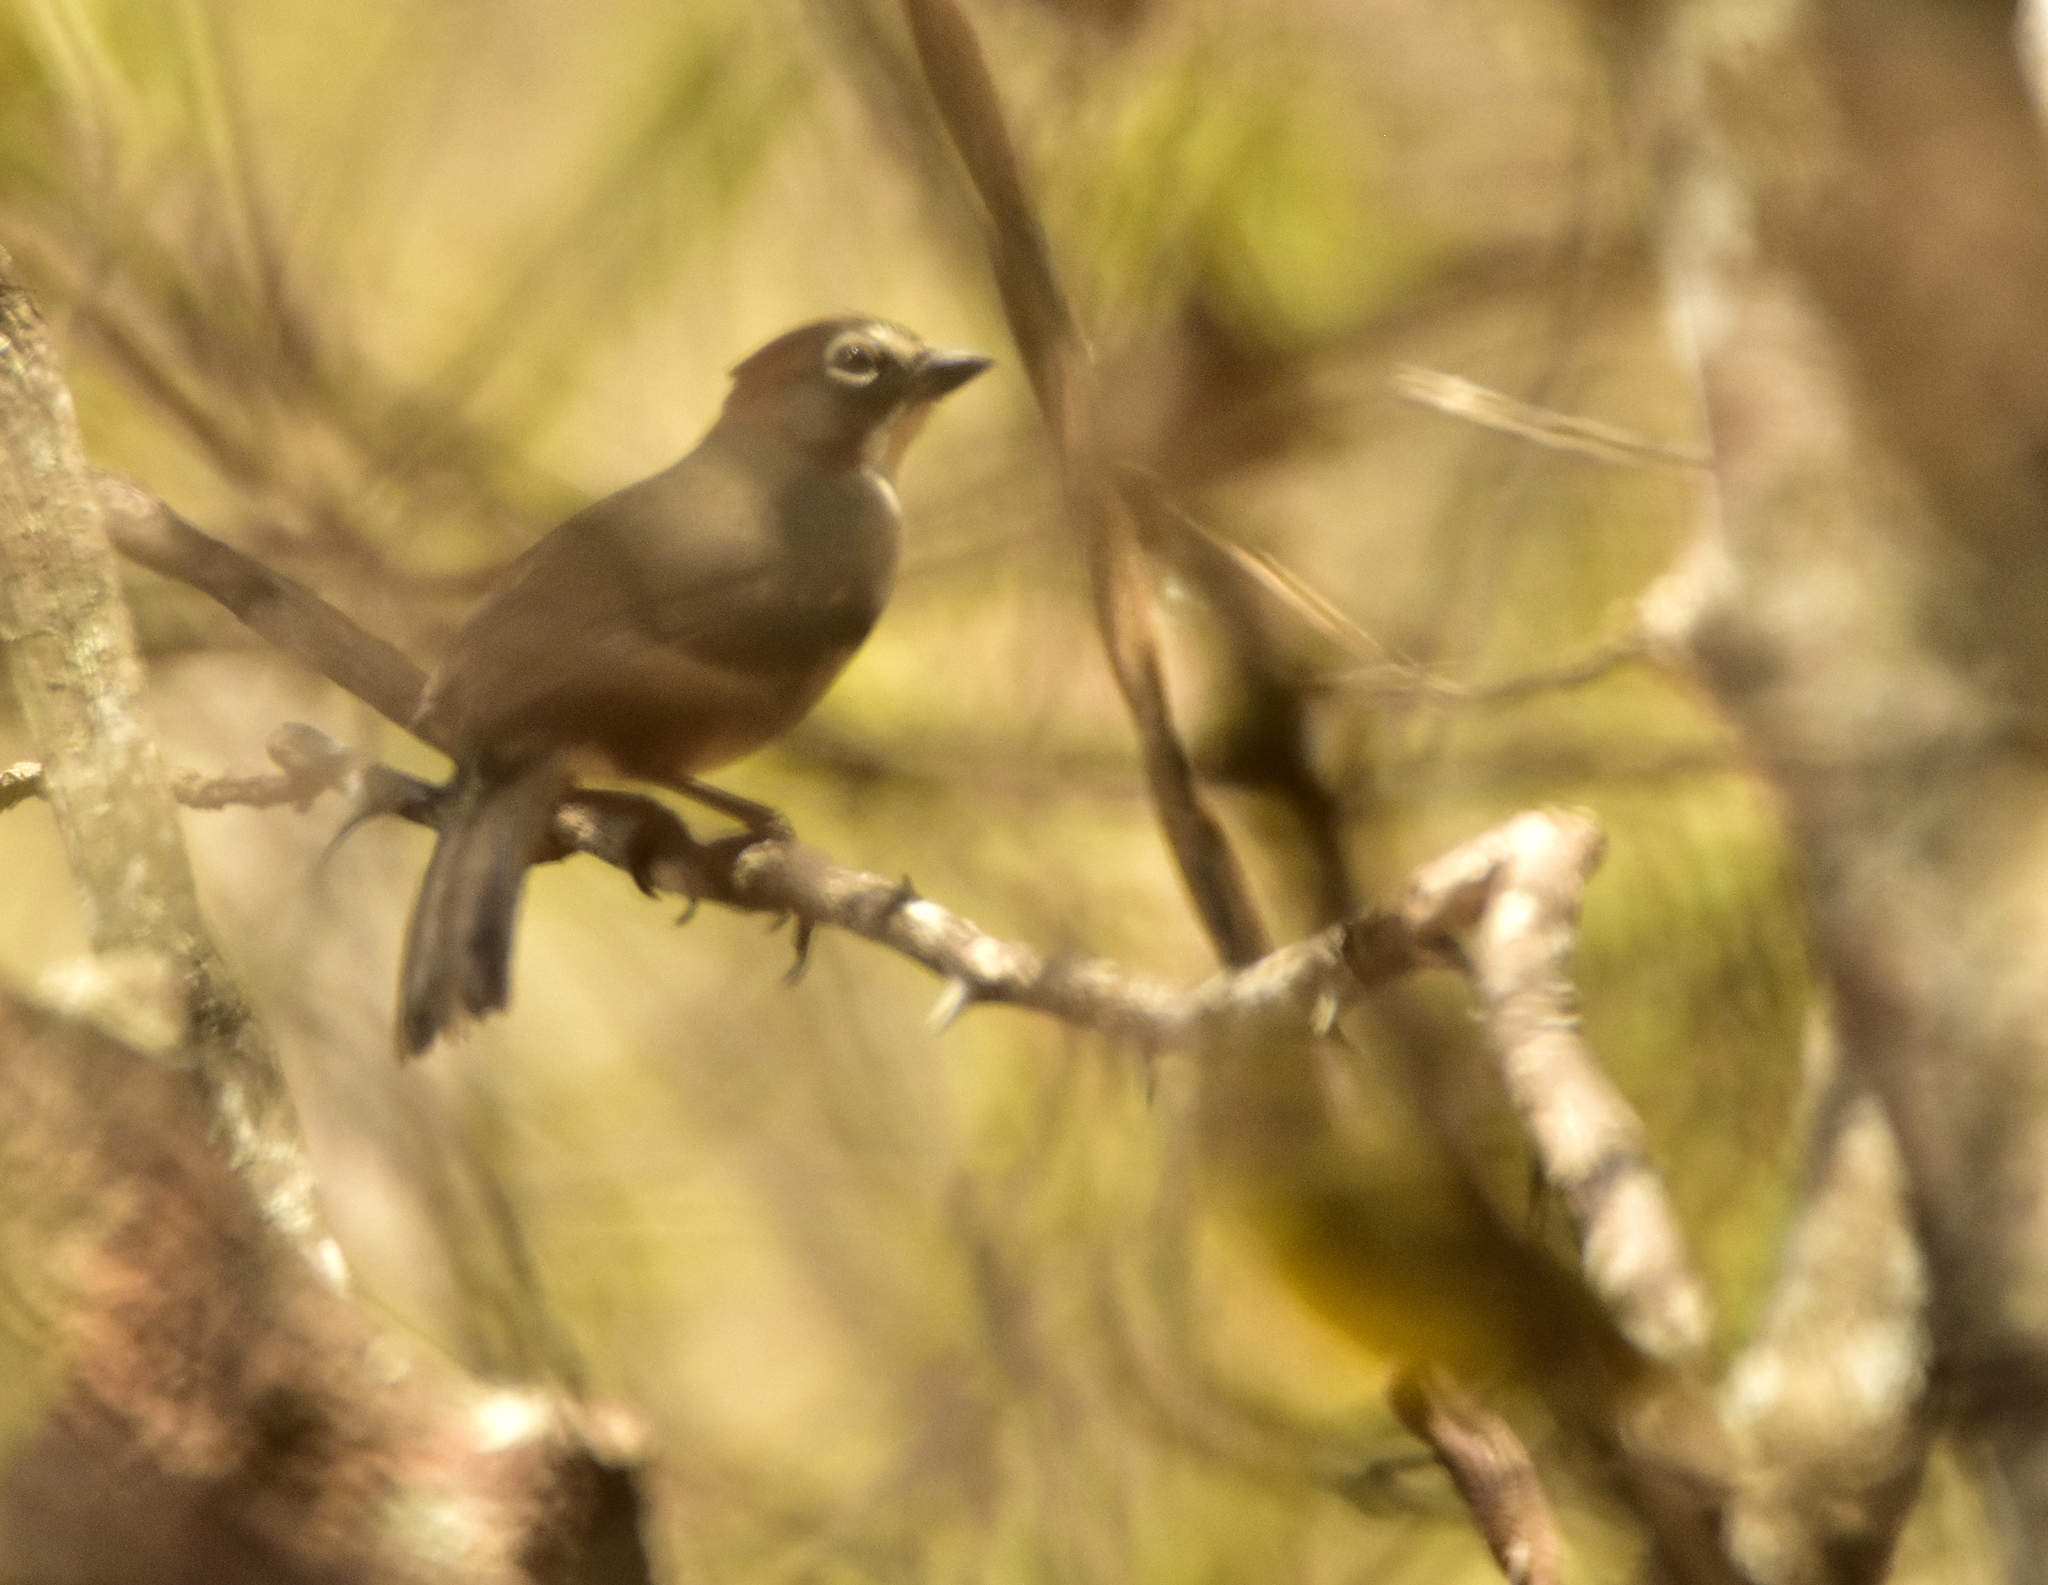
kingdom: Animalia
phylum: Chordata
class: Aves
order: Passeriformes
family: Passerellidae
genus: Melozone
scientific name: Melozone kieneri
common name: Rusty-crowned ground-sparrow
